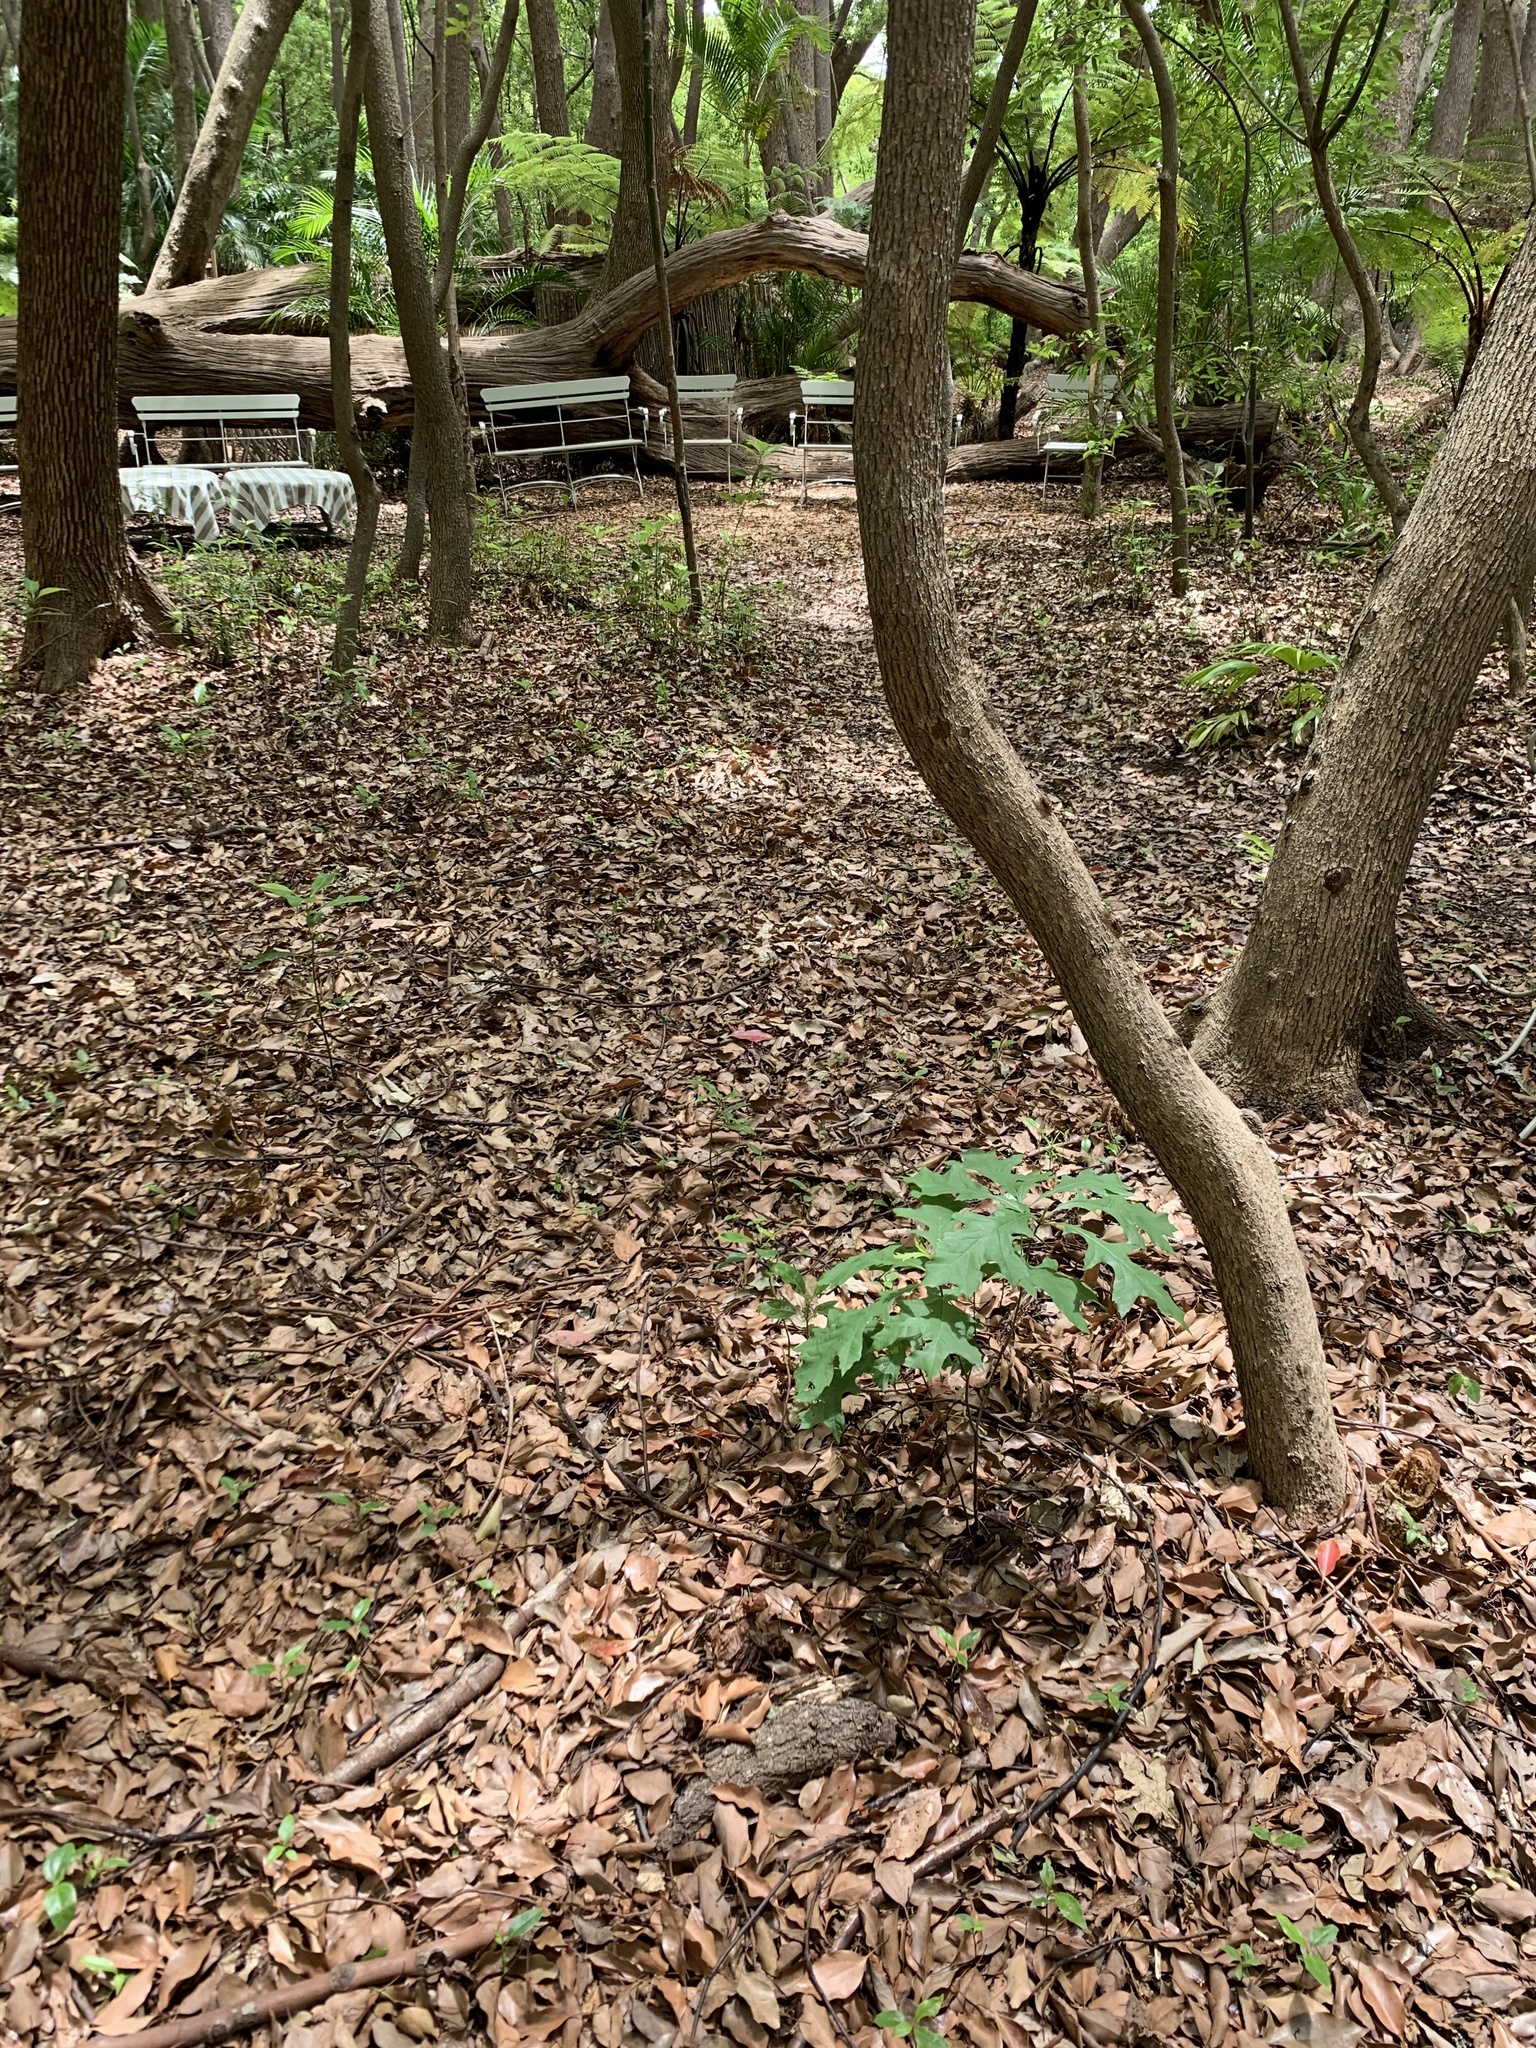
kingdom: Plantae
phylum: Tracheophyta
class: Magnoliopsida
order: Fagales
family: Fagaceae
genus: Quercus
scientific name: Quercus palustris
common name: Pin oak
